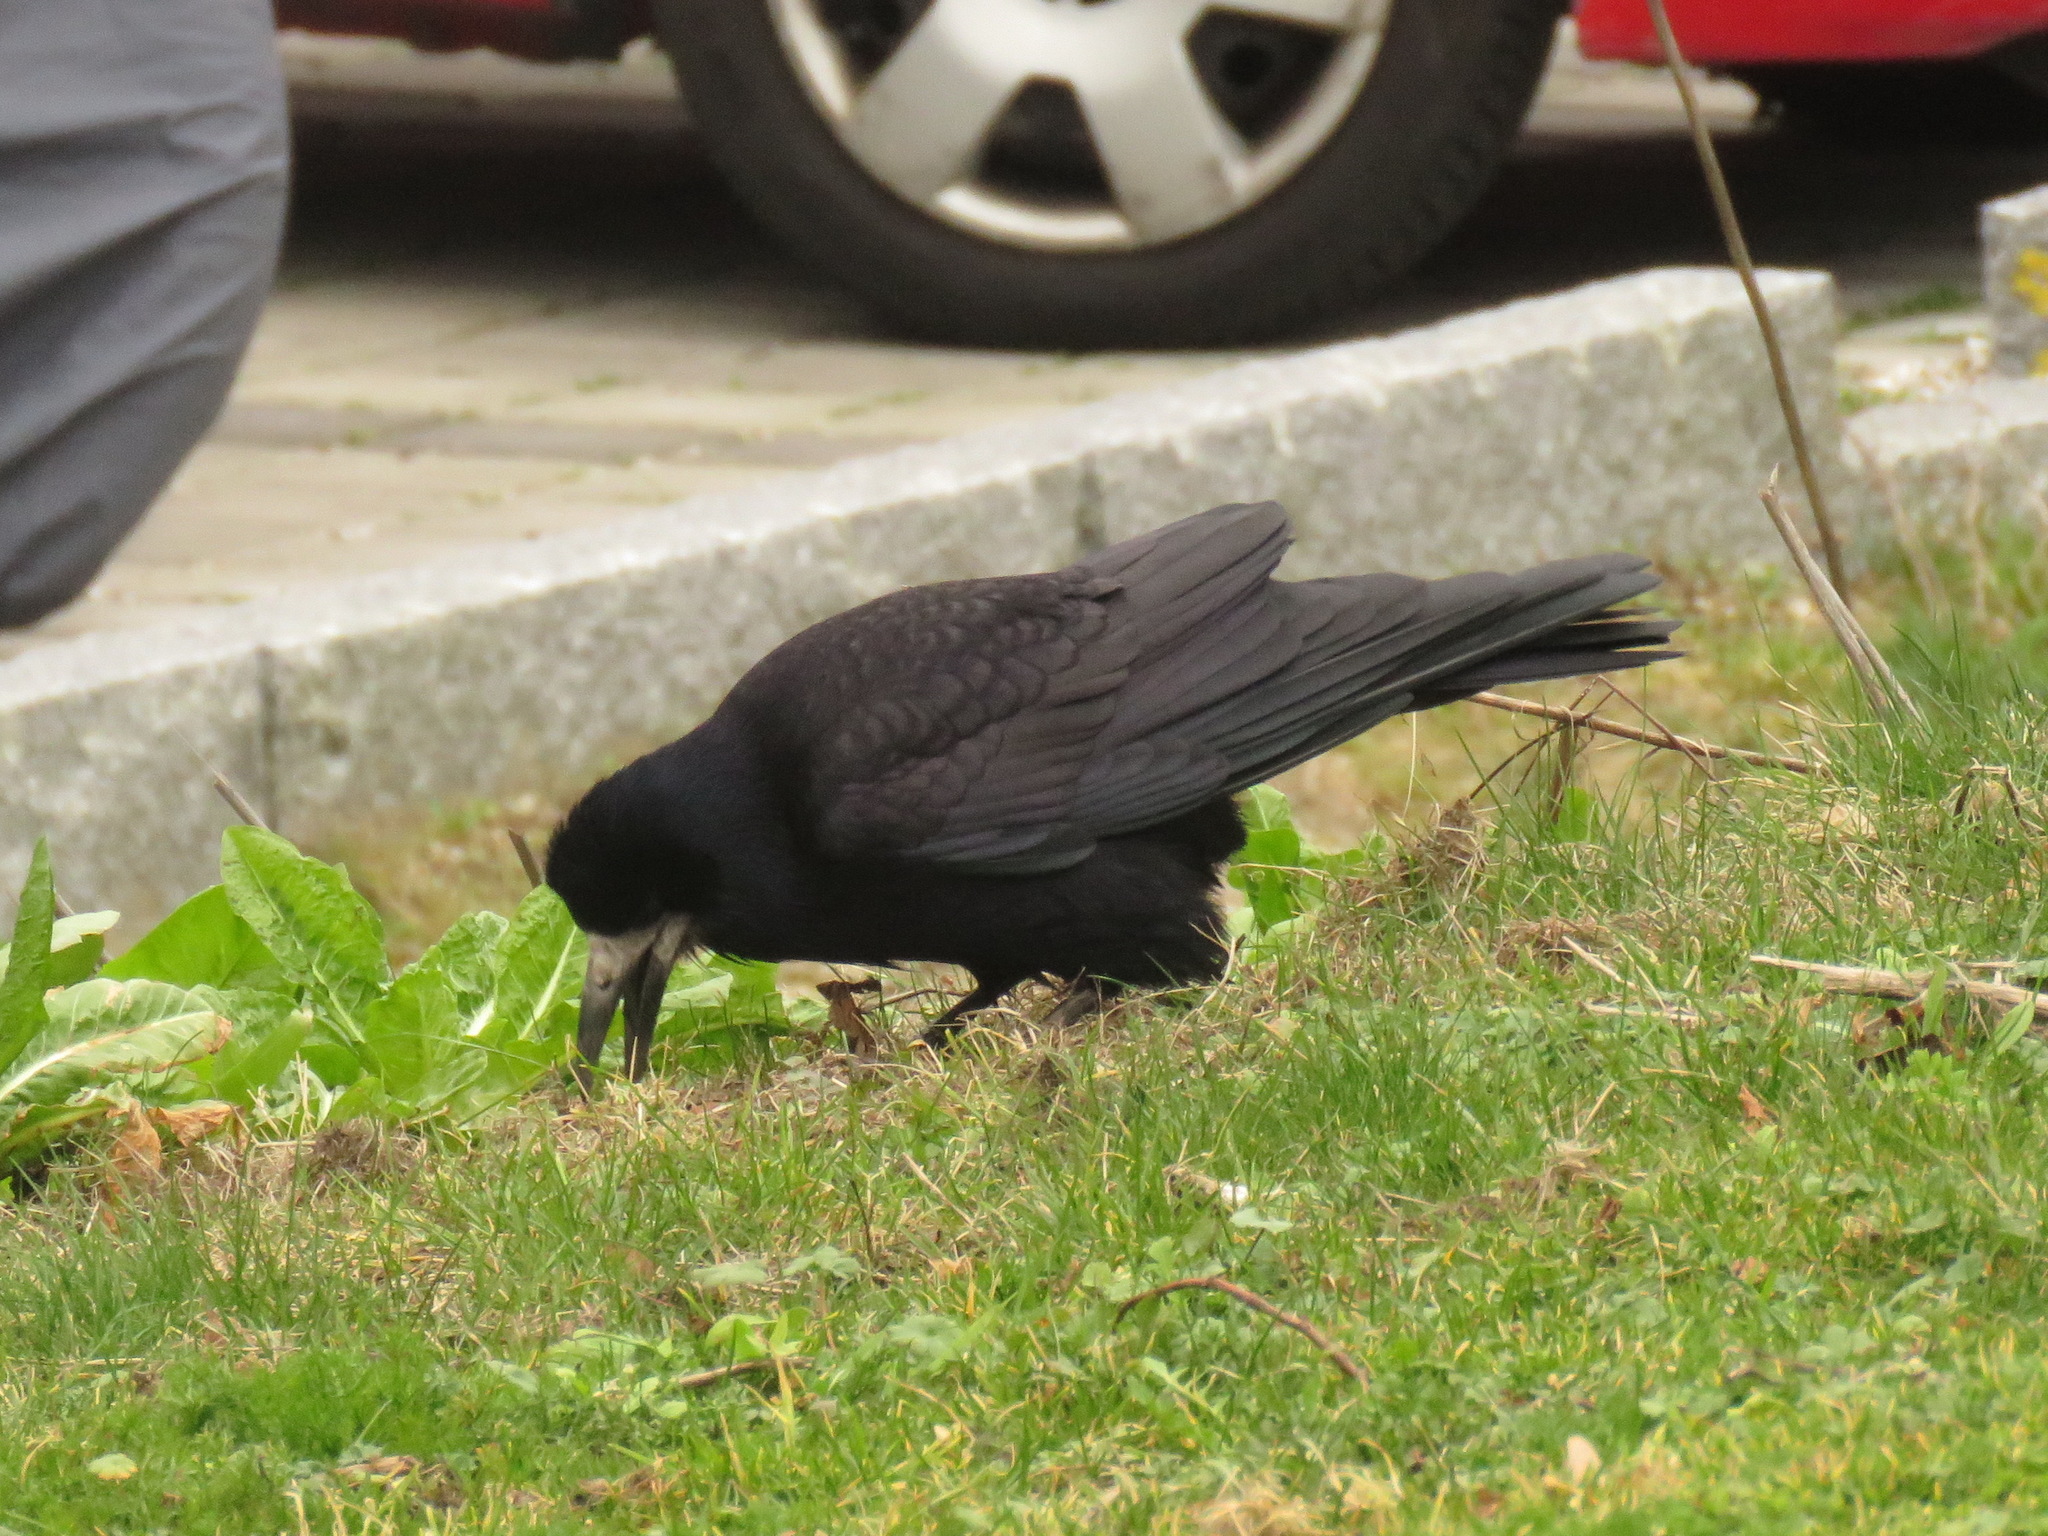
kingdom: Animalia
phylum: Chordata
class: Aves
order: Passeriformes
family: Corvidae
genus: Corvus
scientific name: Corvus frugilegus
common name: Rook
